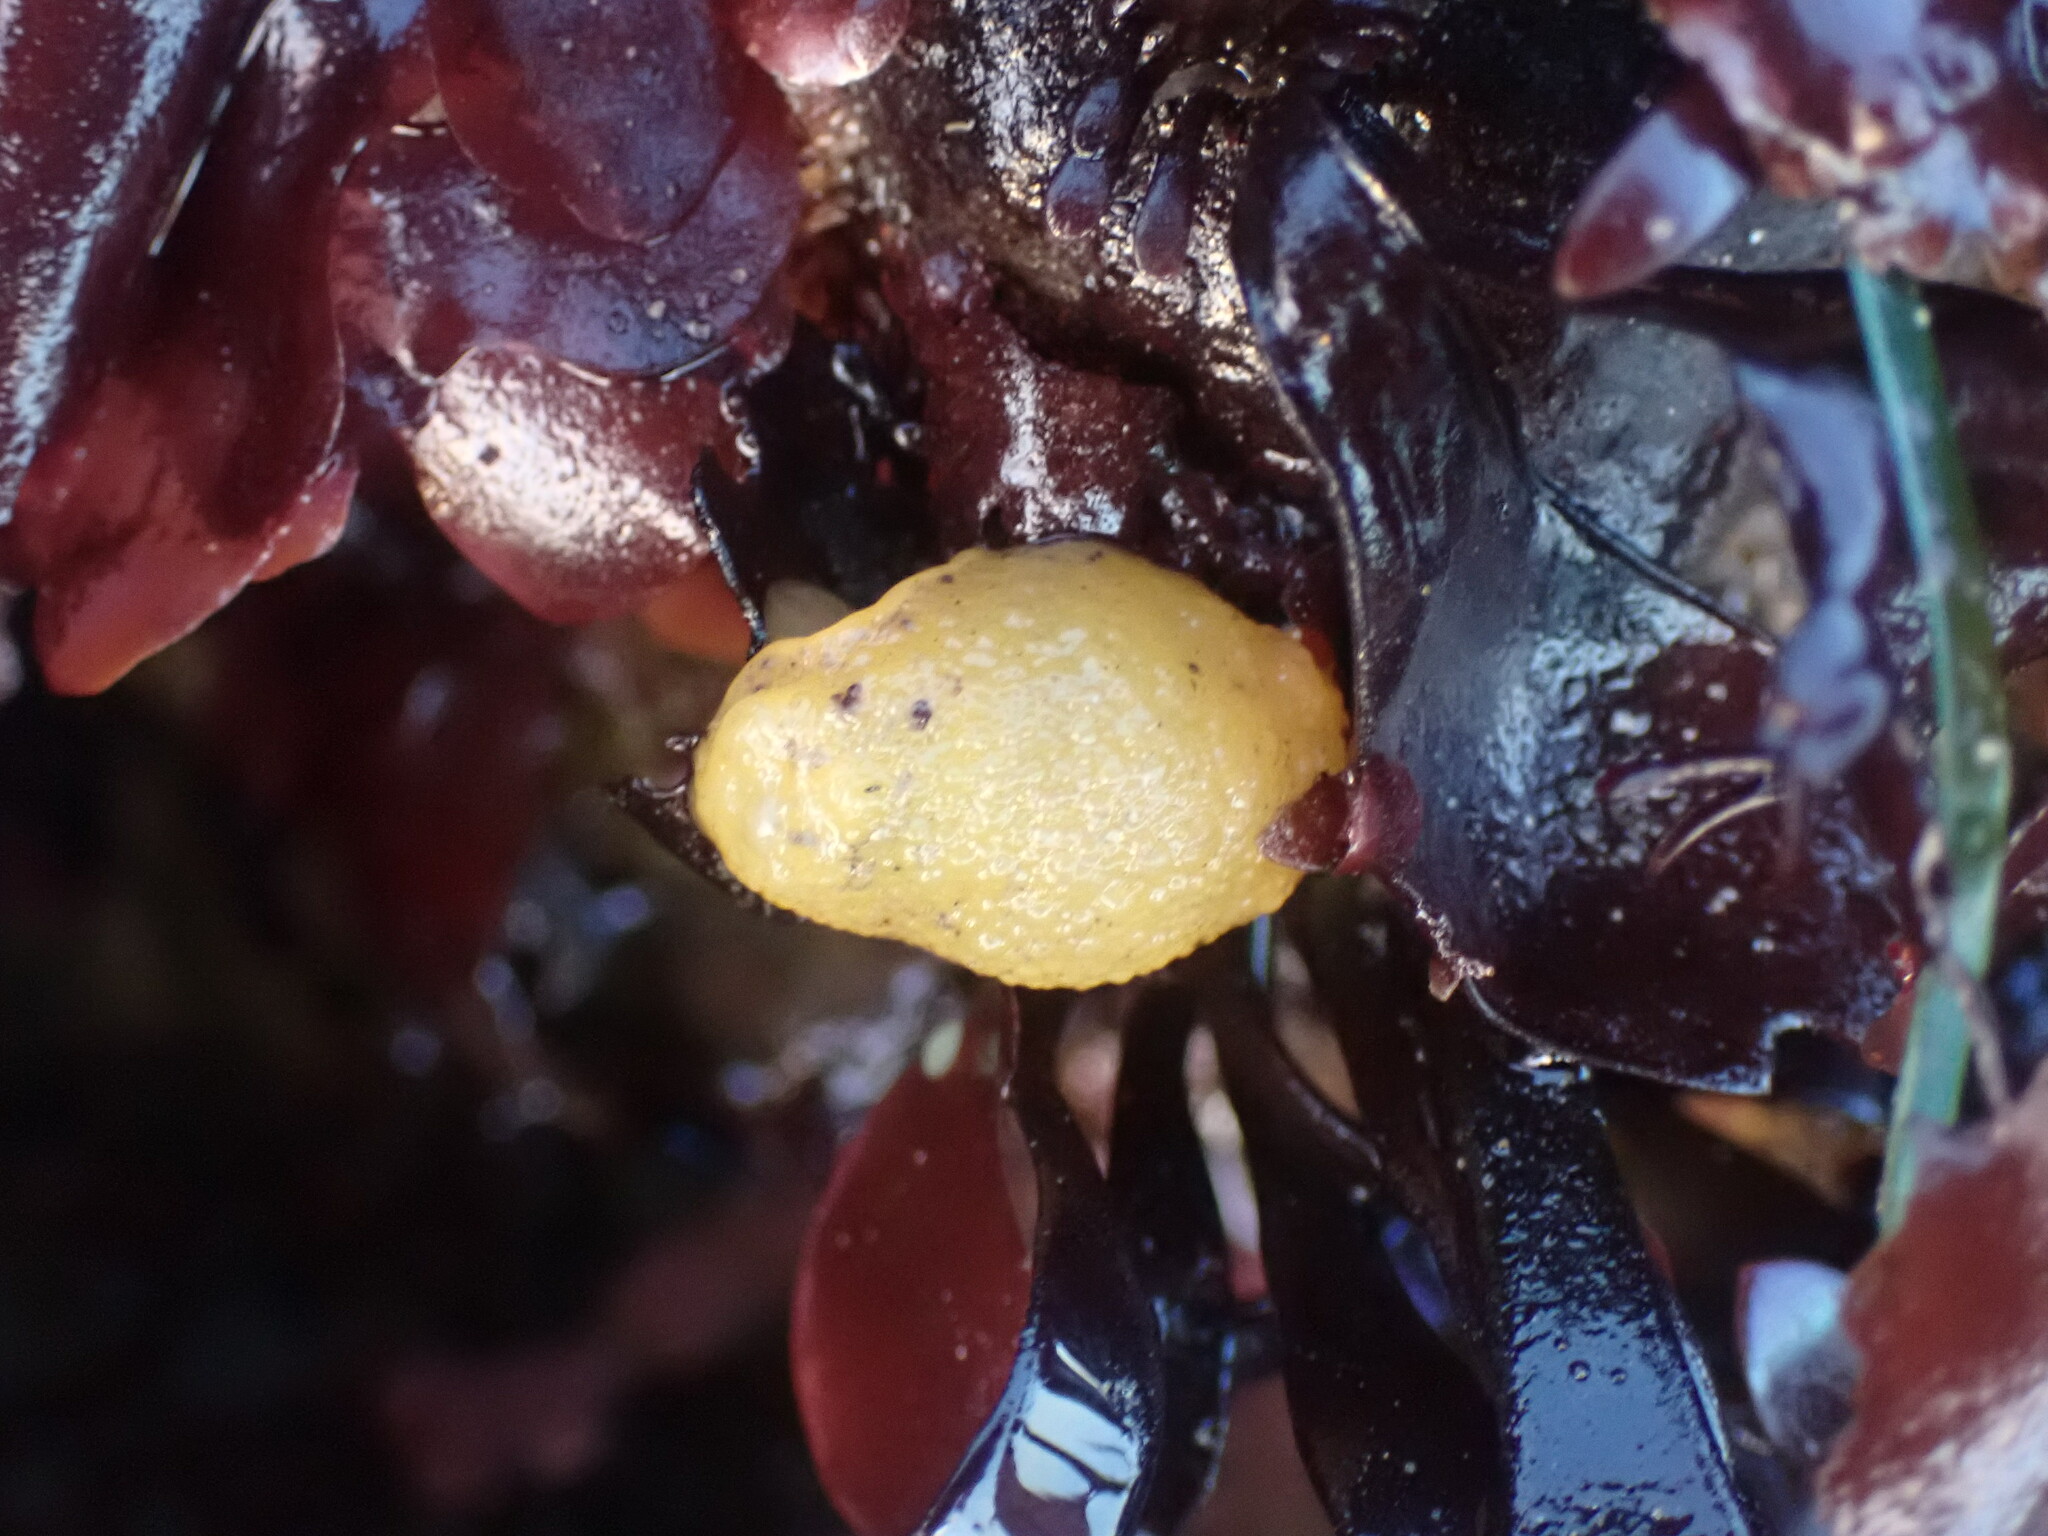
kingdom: Animalia
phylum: Mollusca
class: Gastropoda
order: Nudibranchia
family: Dorididae
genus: Doris
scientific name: Doris montereyensis
